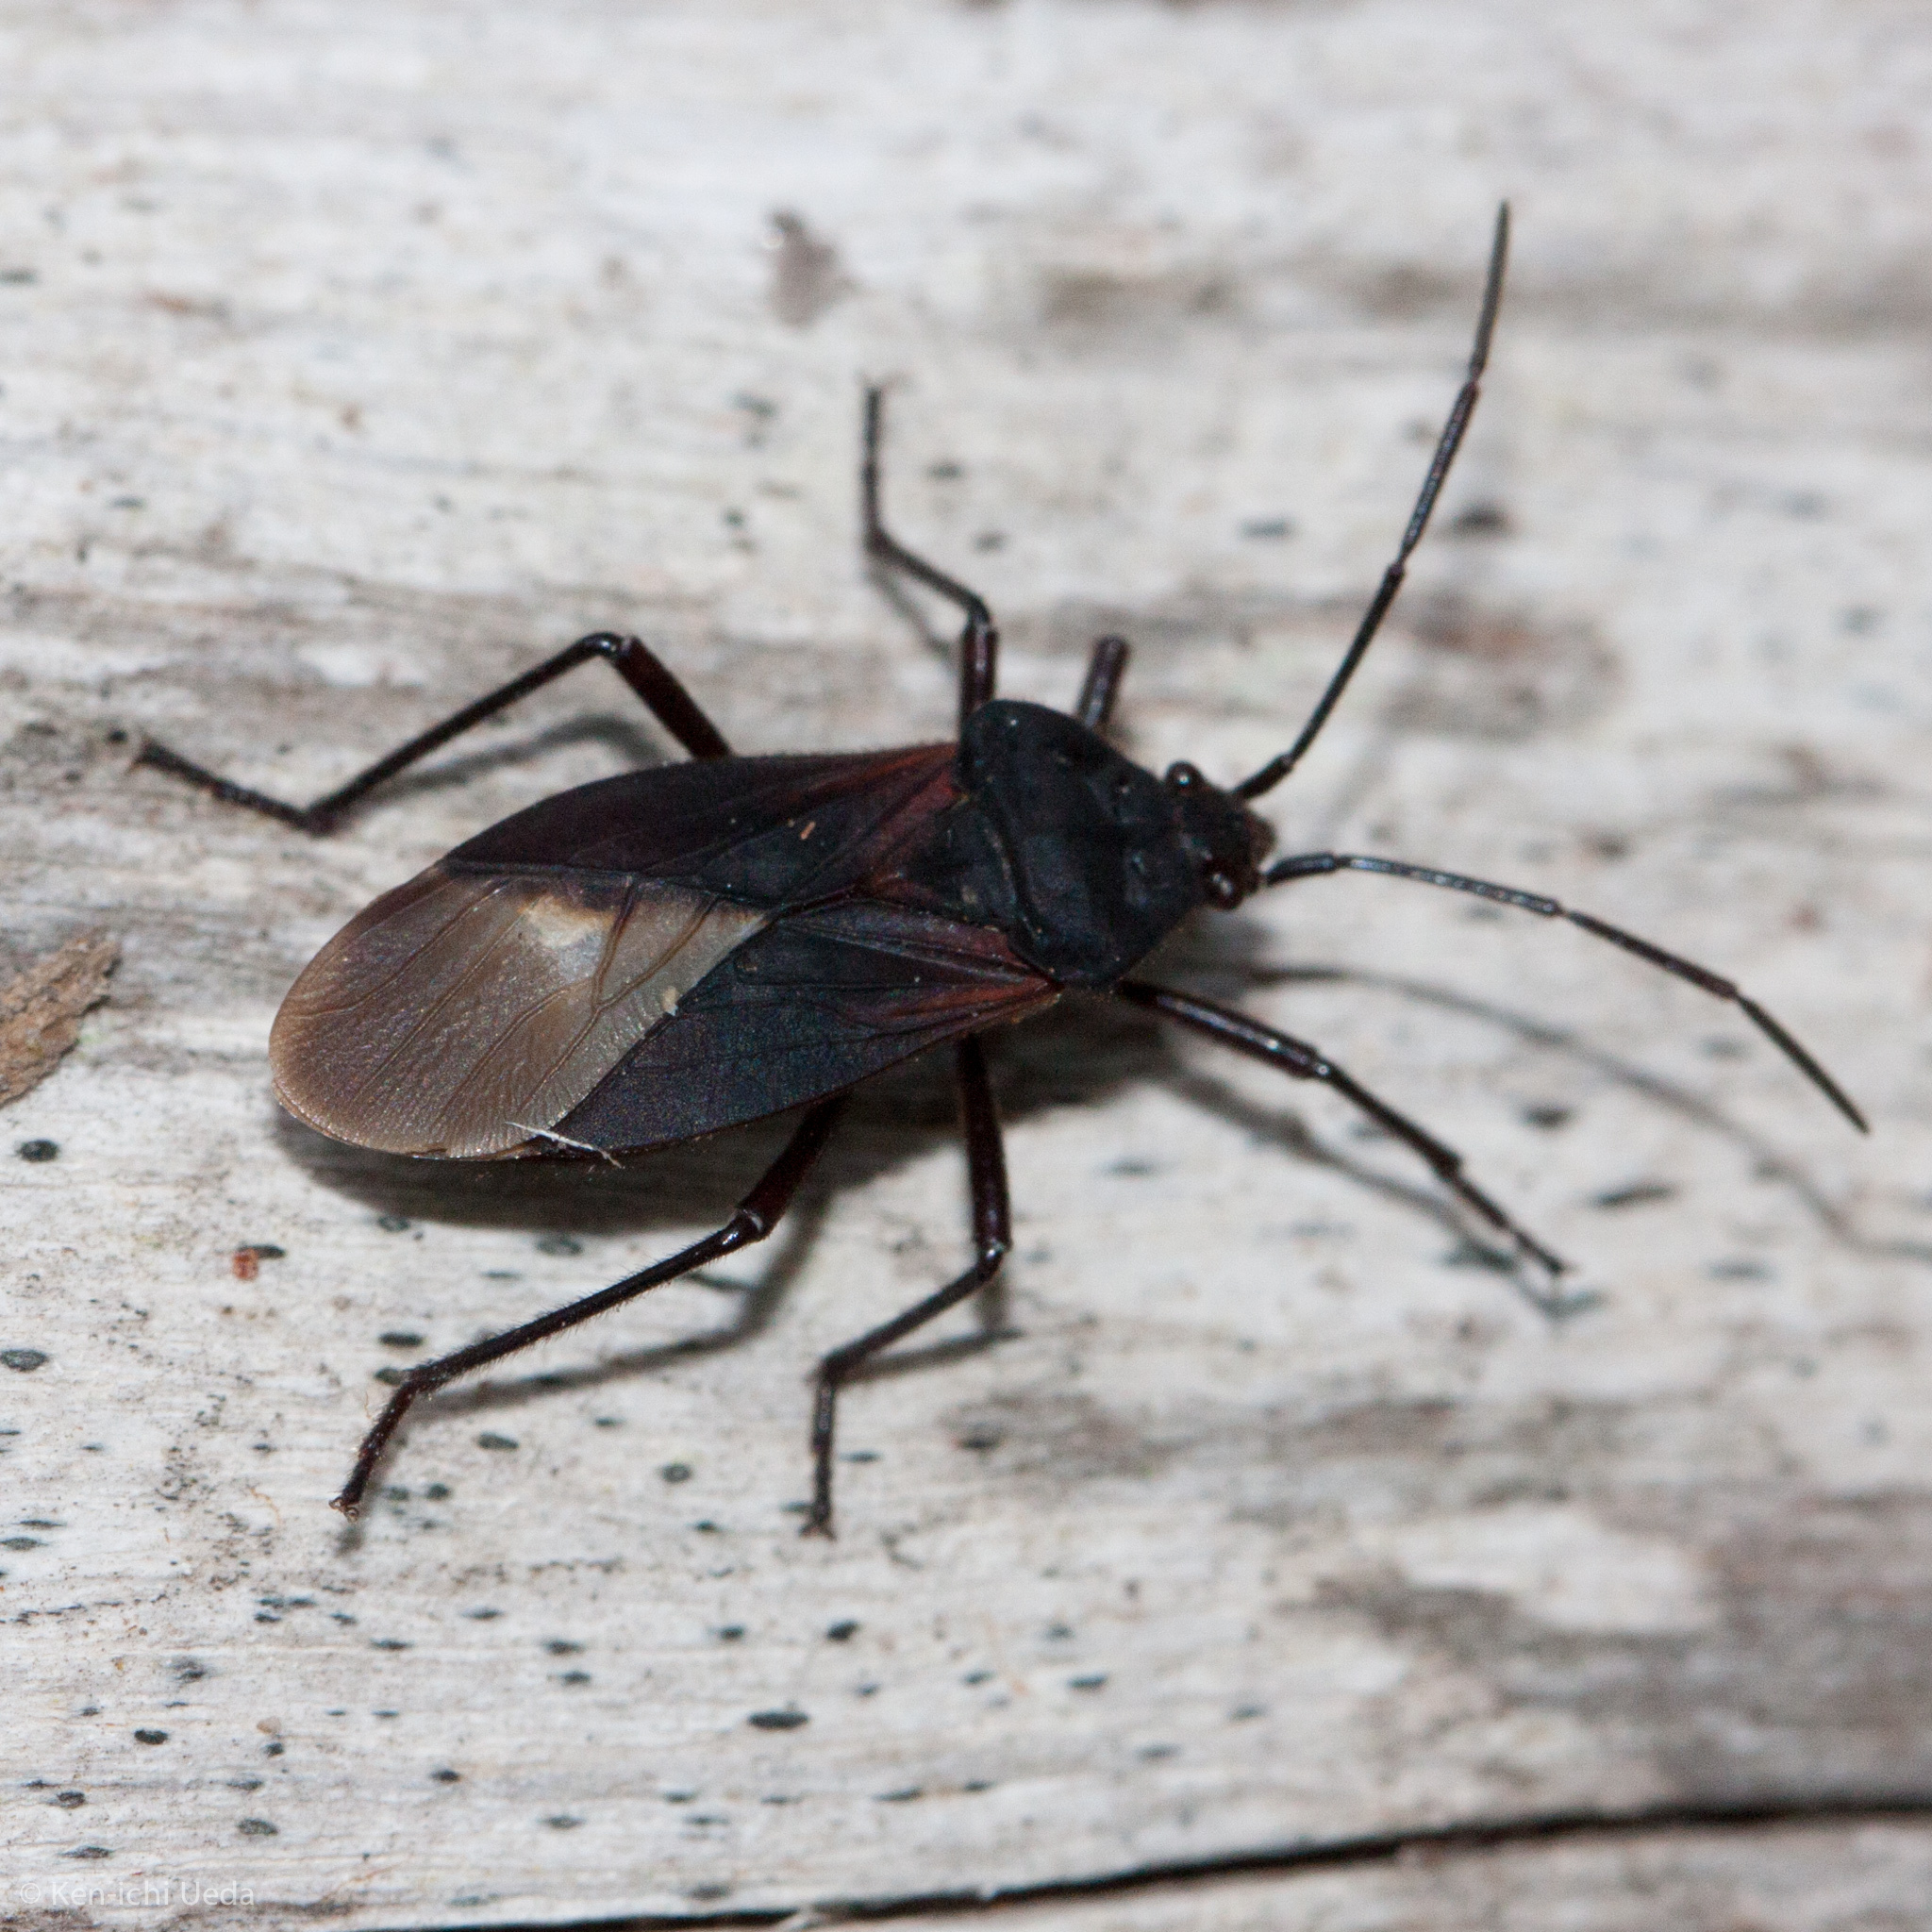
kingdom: Animalia
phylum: Arthropoda
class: Insecta
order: Hemiptera
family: Lygaeidae
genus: Oncopeltus
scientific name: Oncopeltus sordidus
